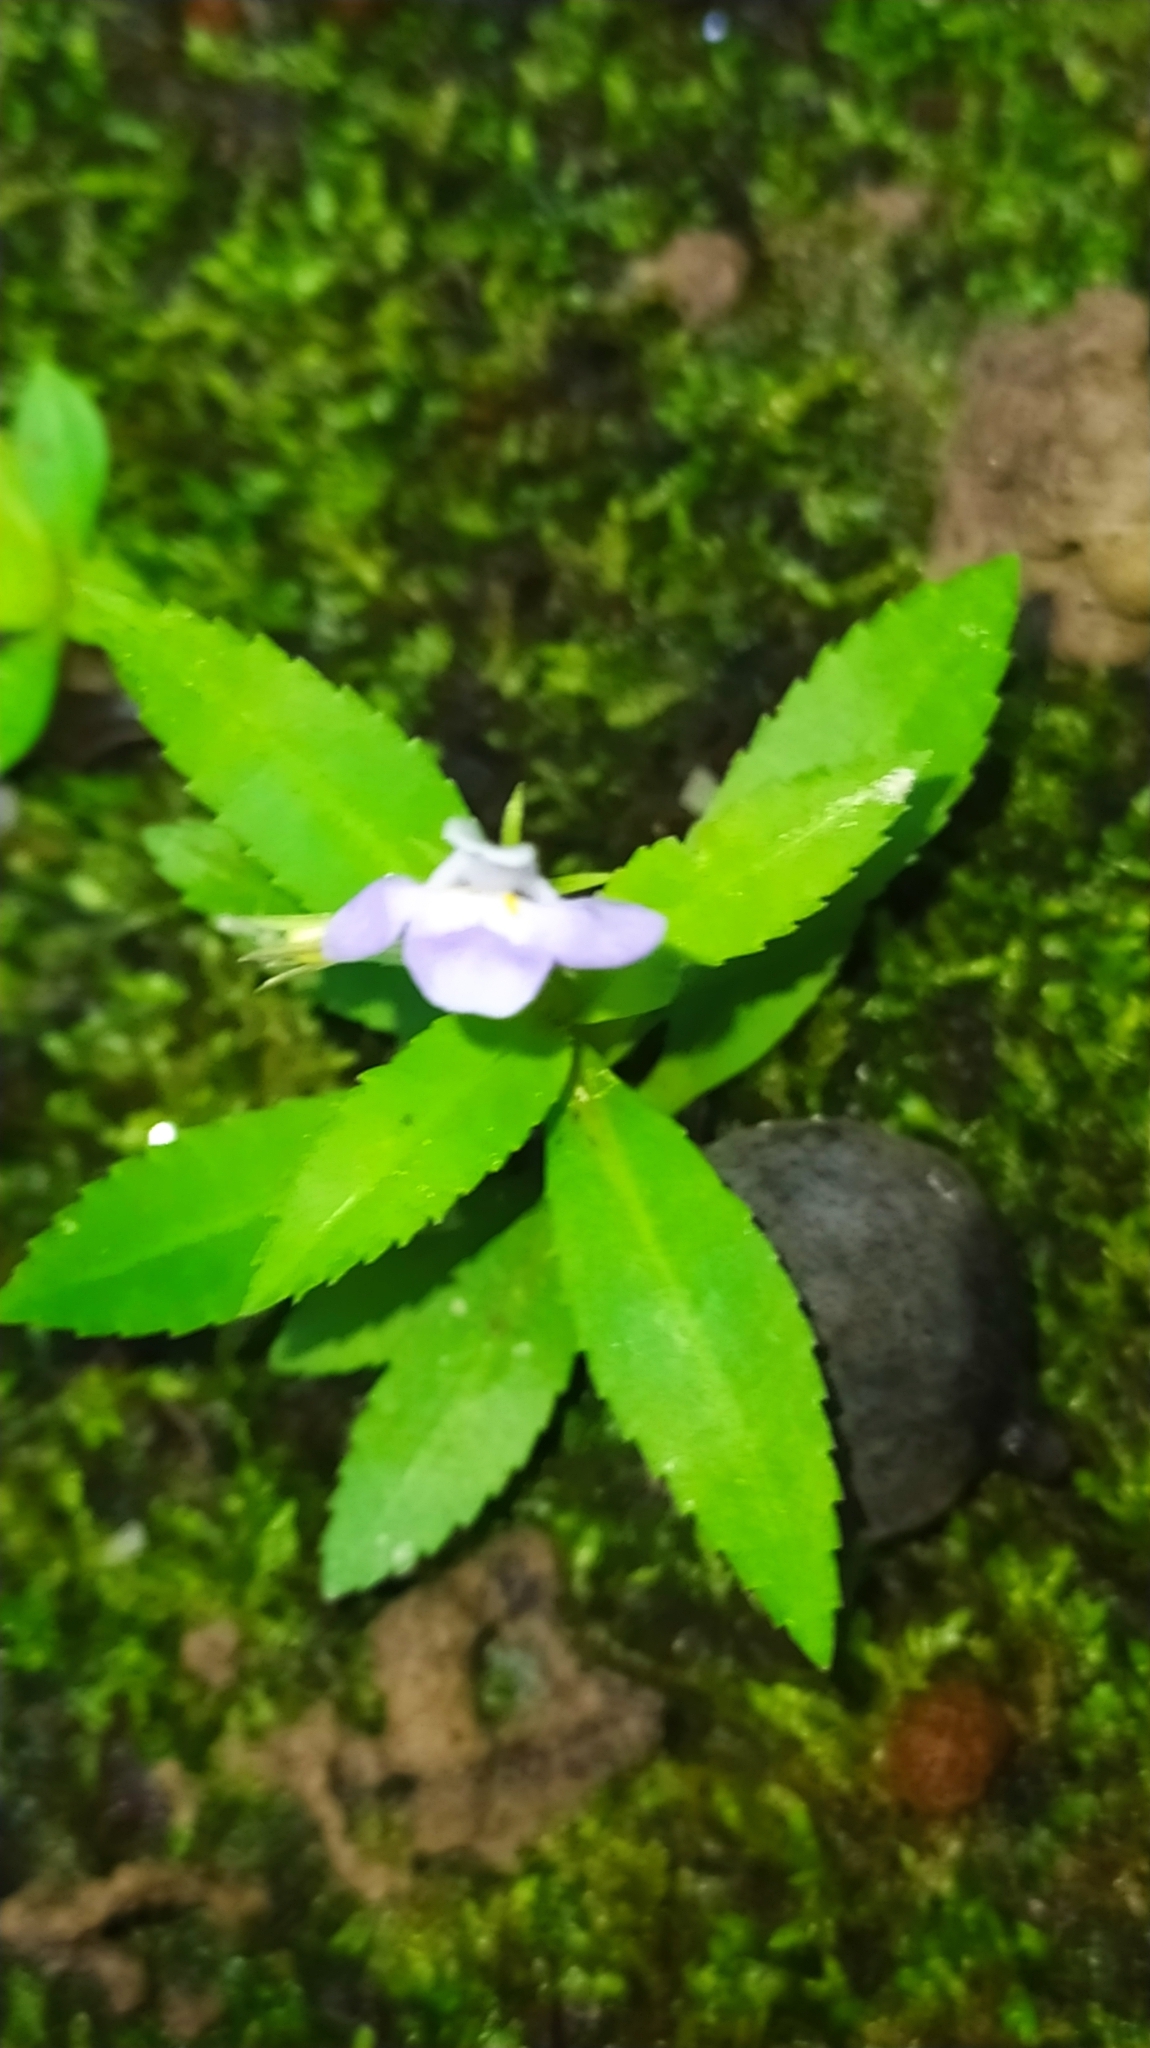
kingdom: Plantae
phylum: Tracheophyta
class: Magnoliopsida
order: Lamiales
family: Linderniaceae
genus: Bonnaya
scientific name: Bonnaya antipoda
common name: Sparrow false pimpernel
